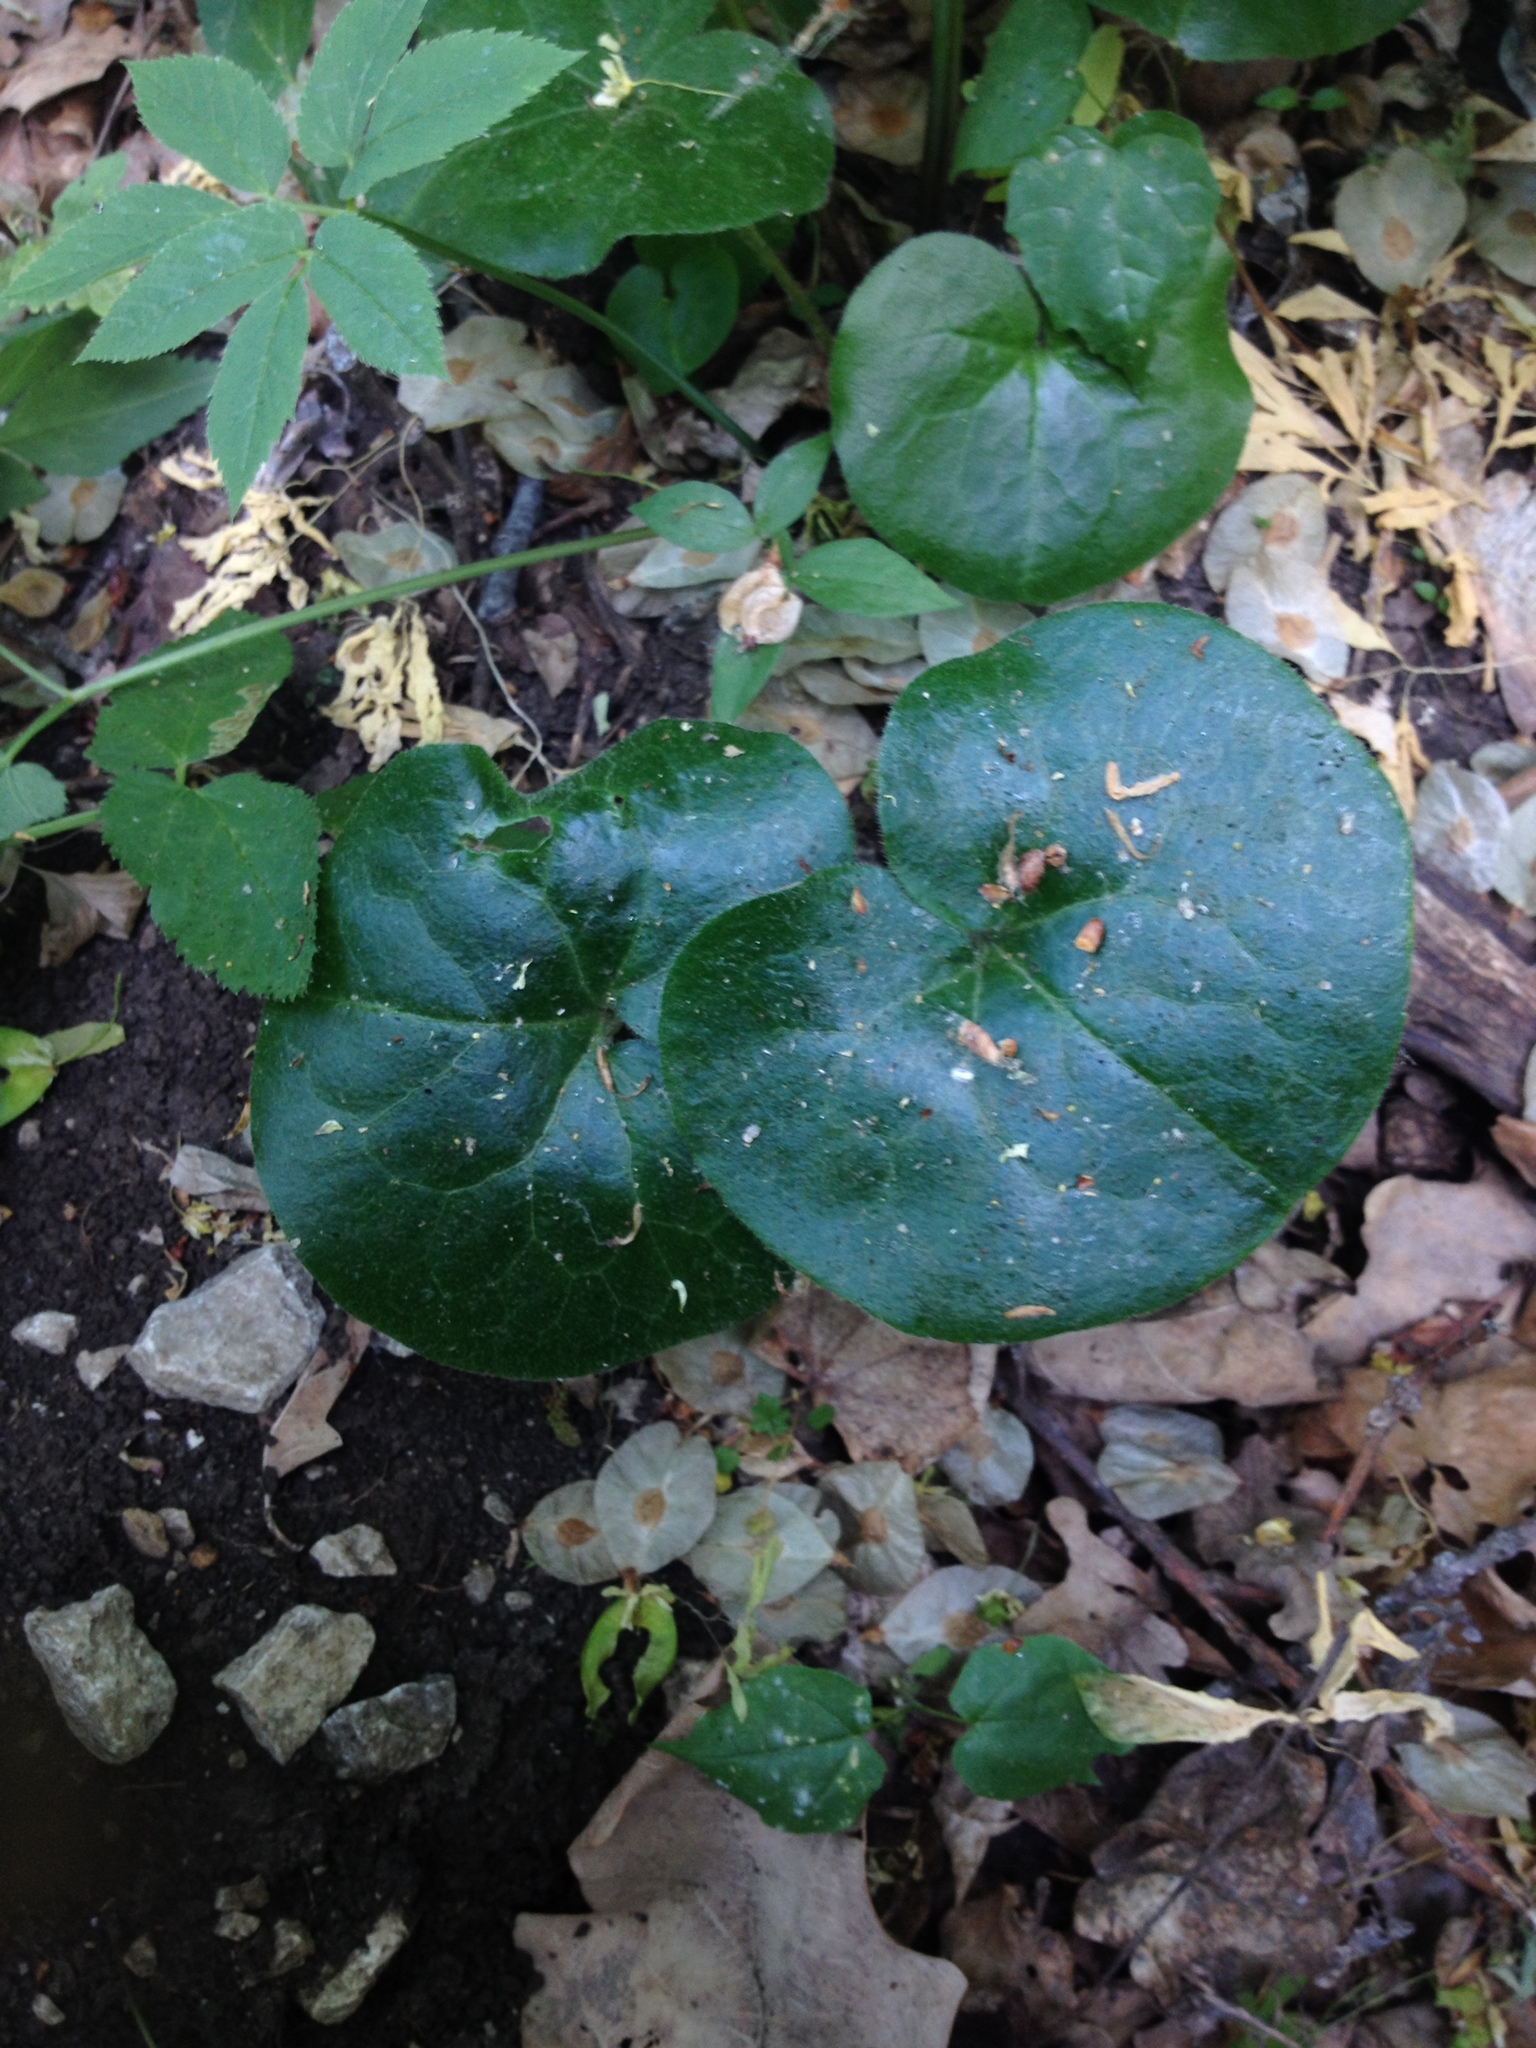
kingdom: Plantae
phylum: Tracheophyta
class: Magnoliopsida
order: Piperales
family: Aristolochiaceae
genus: Asarum
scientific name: Asarum europaeum
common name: Asarabacca
